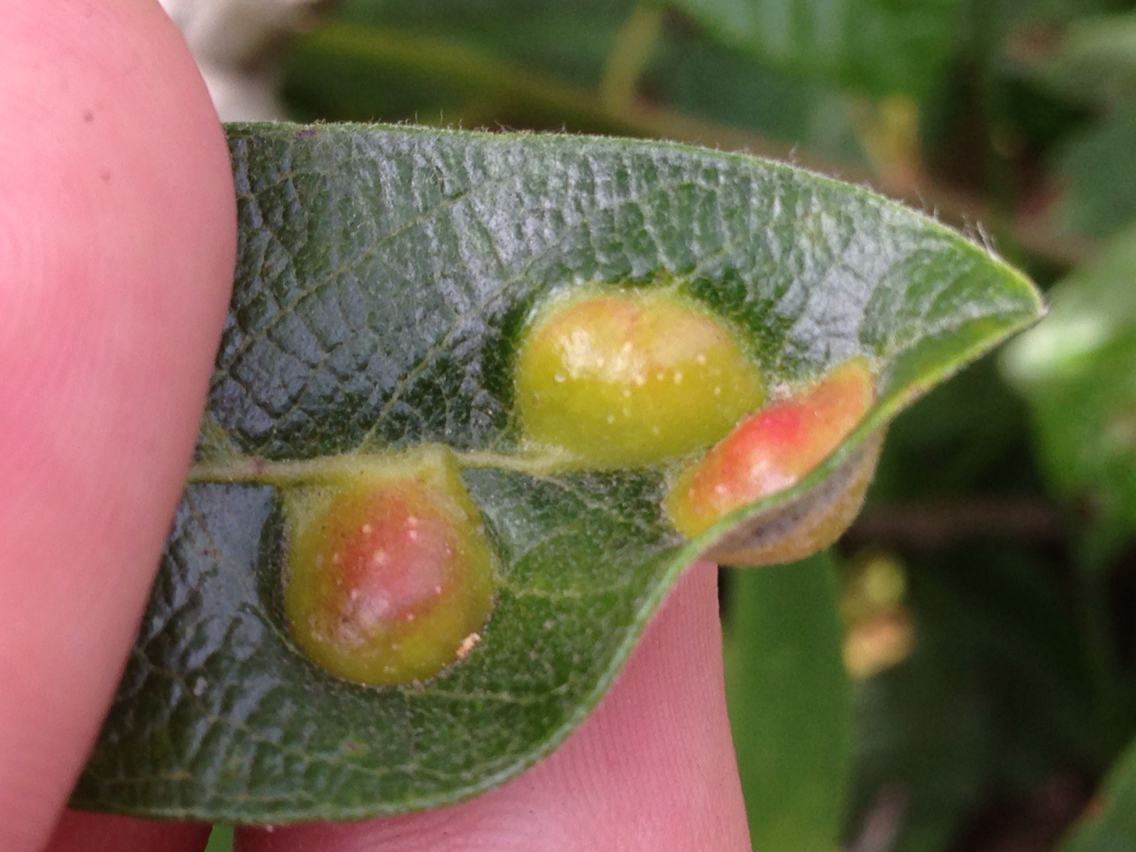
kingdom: Animalia
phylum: Arthropoda
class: Insecta
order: Hymenoptera
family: Tenthredinidae
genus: Euura
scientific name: Euura
